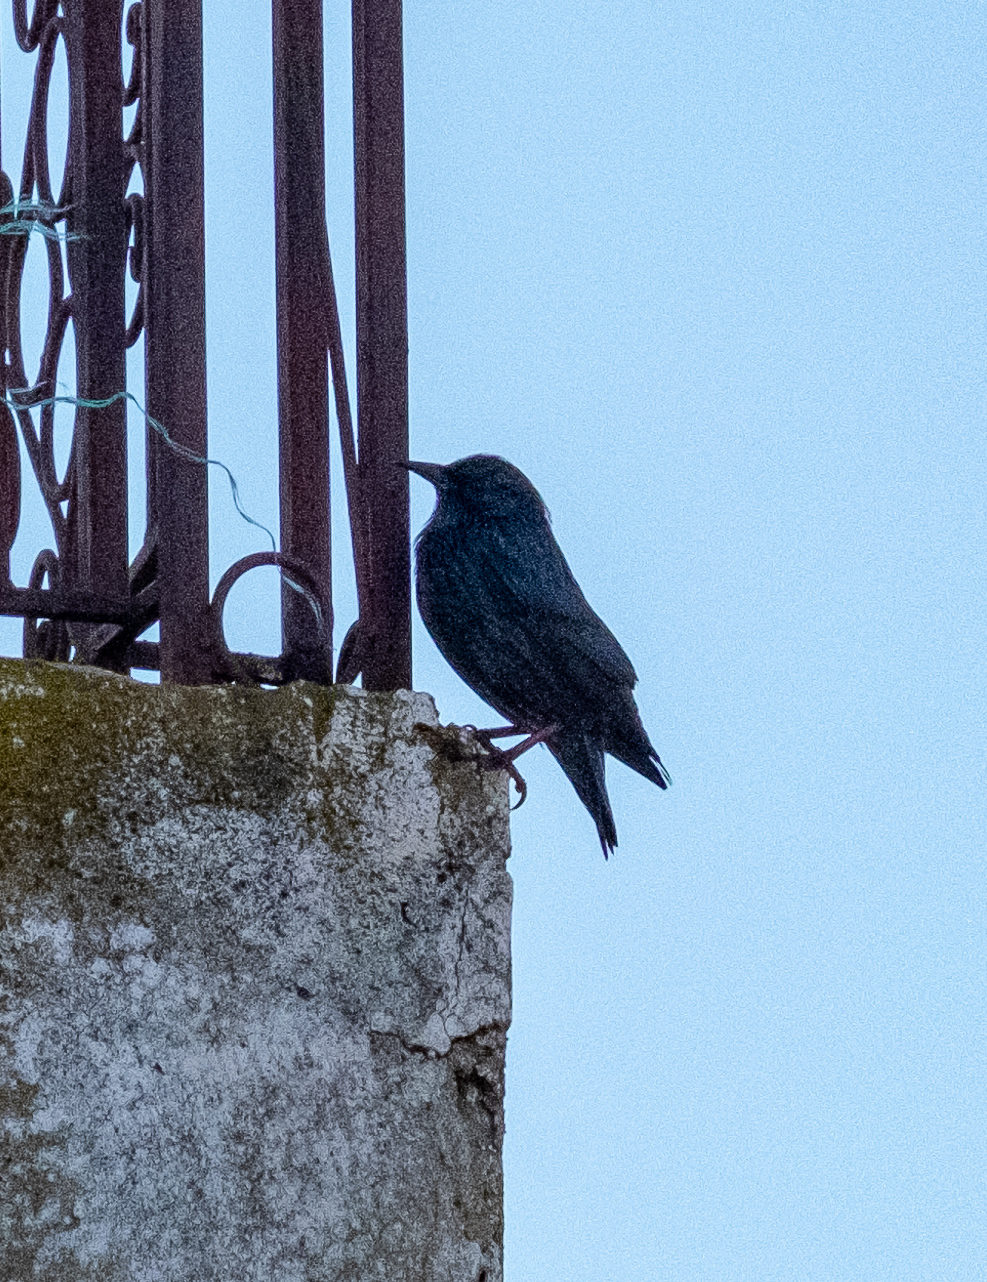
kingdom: Animalia
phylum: Chordata
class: Aves
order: Passeriformes
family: Sturnidae
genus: Sturnus
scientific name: Sturnus vulgaris
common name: Common starling
